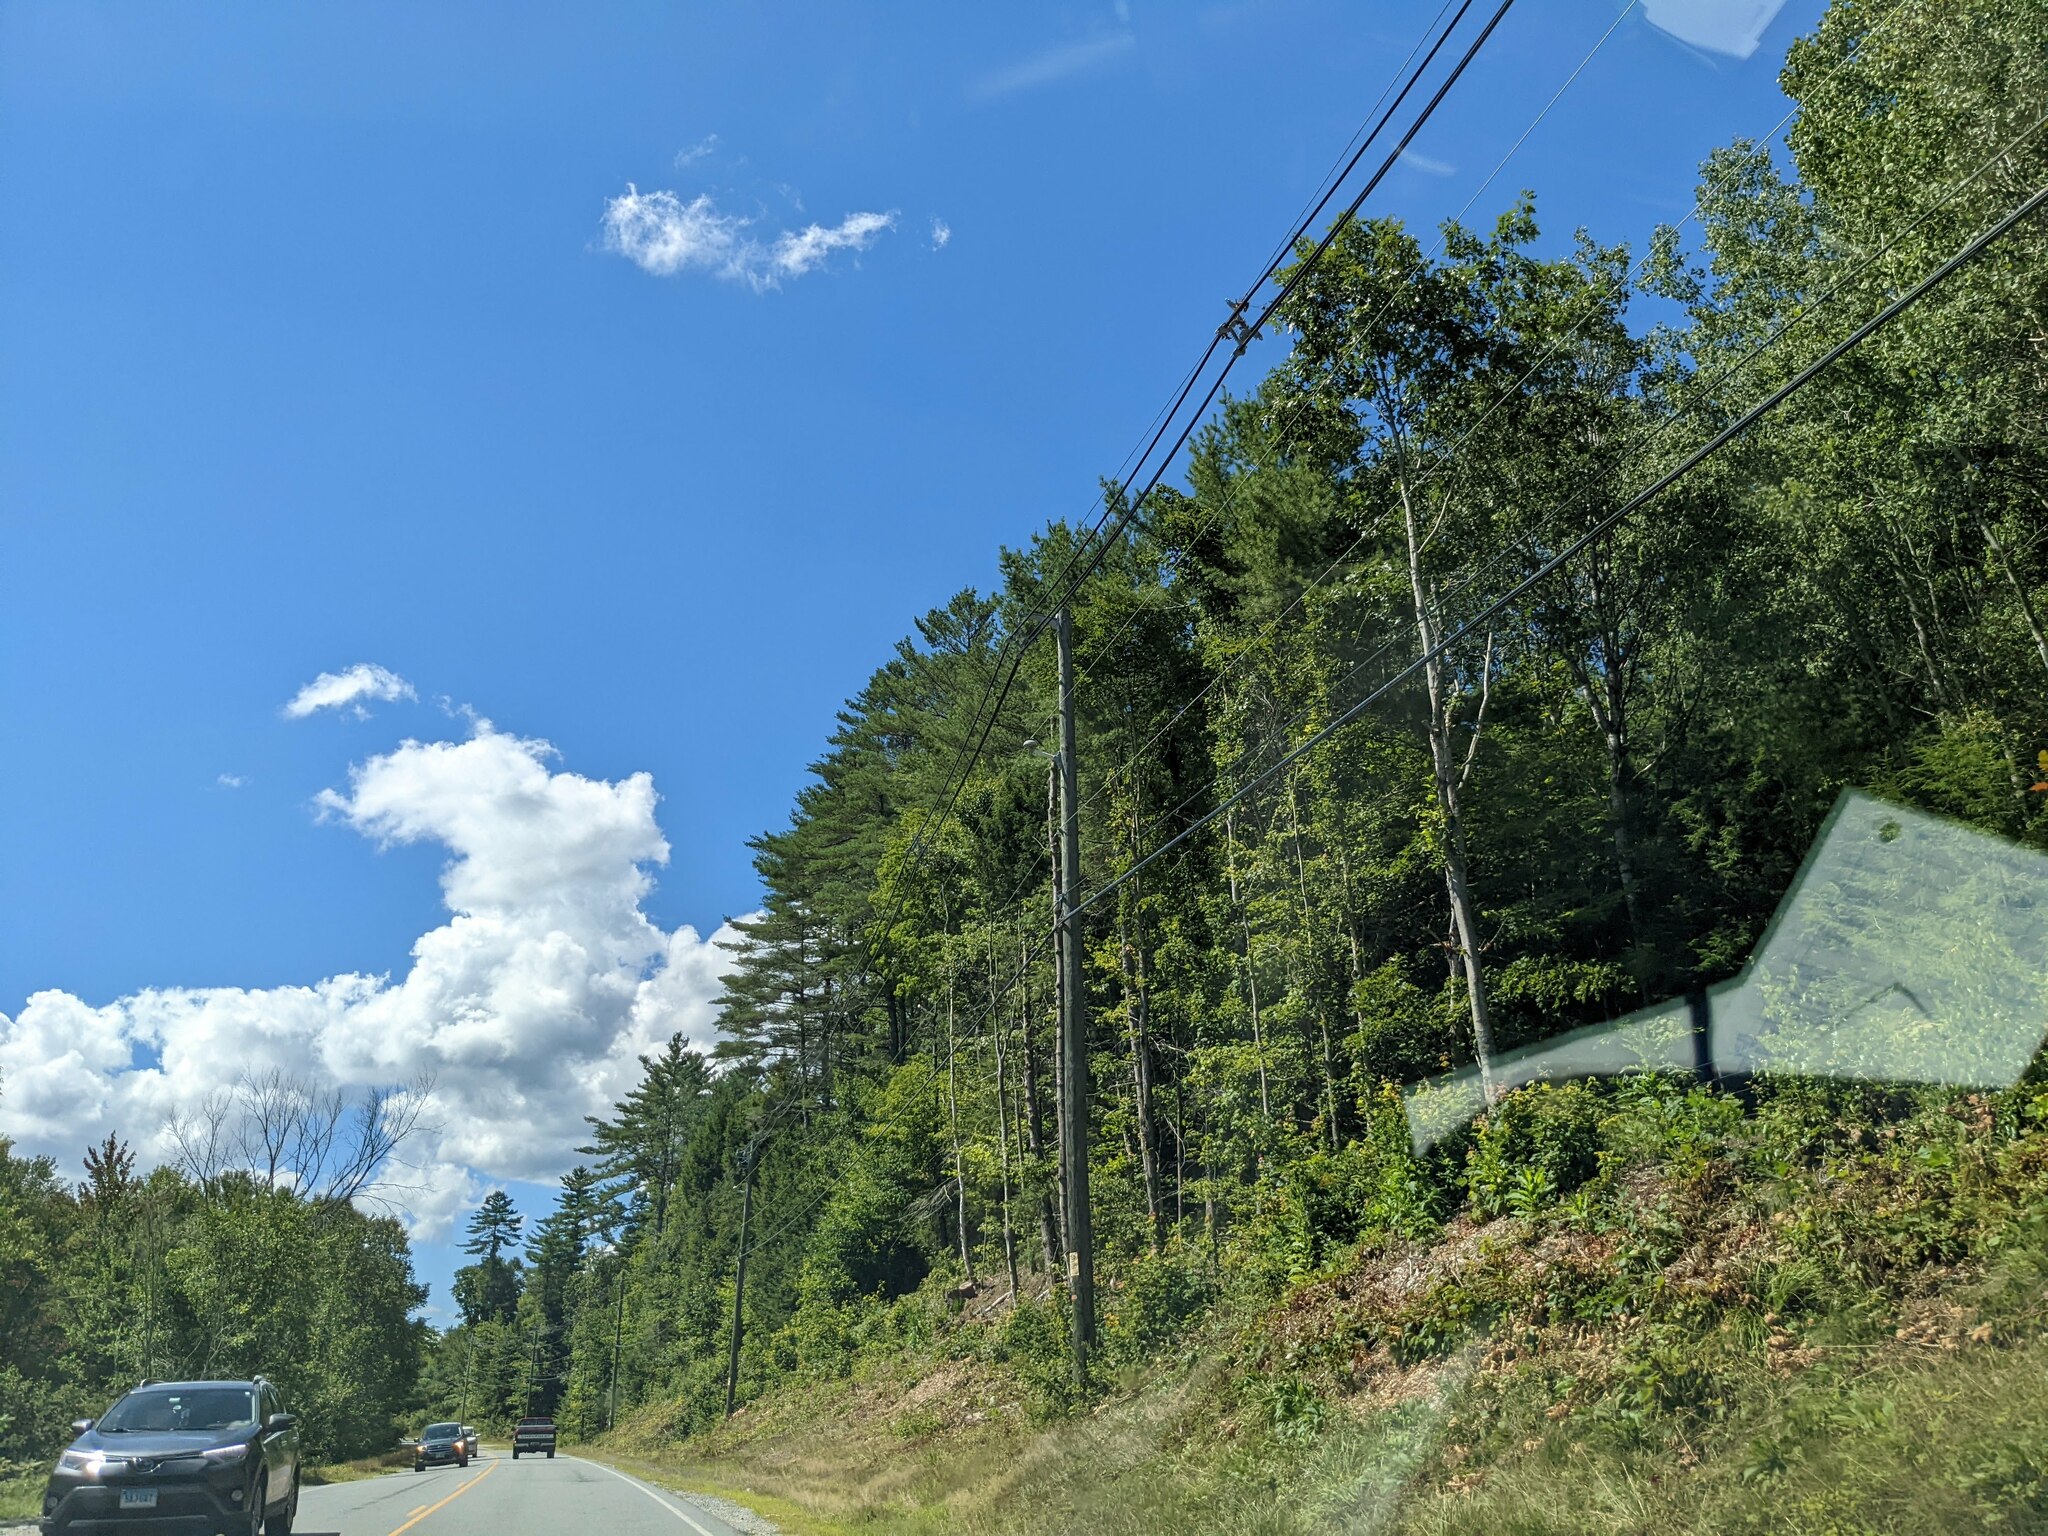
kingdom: Plantae
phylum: Tracheophyta
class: Pinopsida
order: Pinales
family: Pinaceae
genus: Pinus
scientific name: Pinus strobus
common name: Weymouth pine
